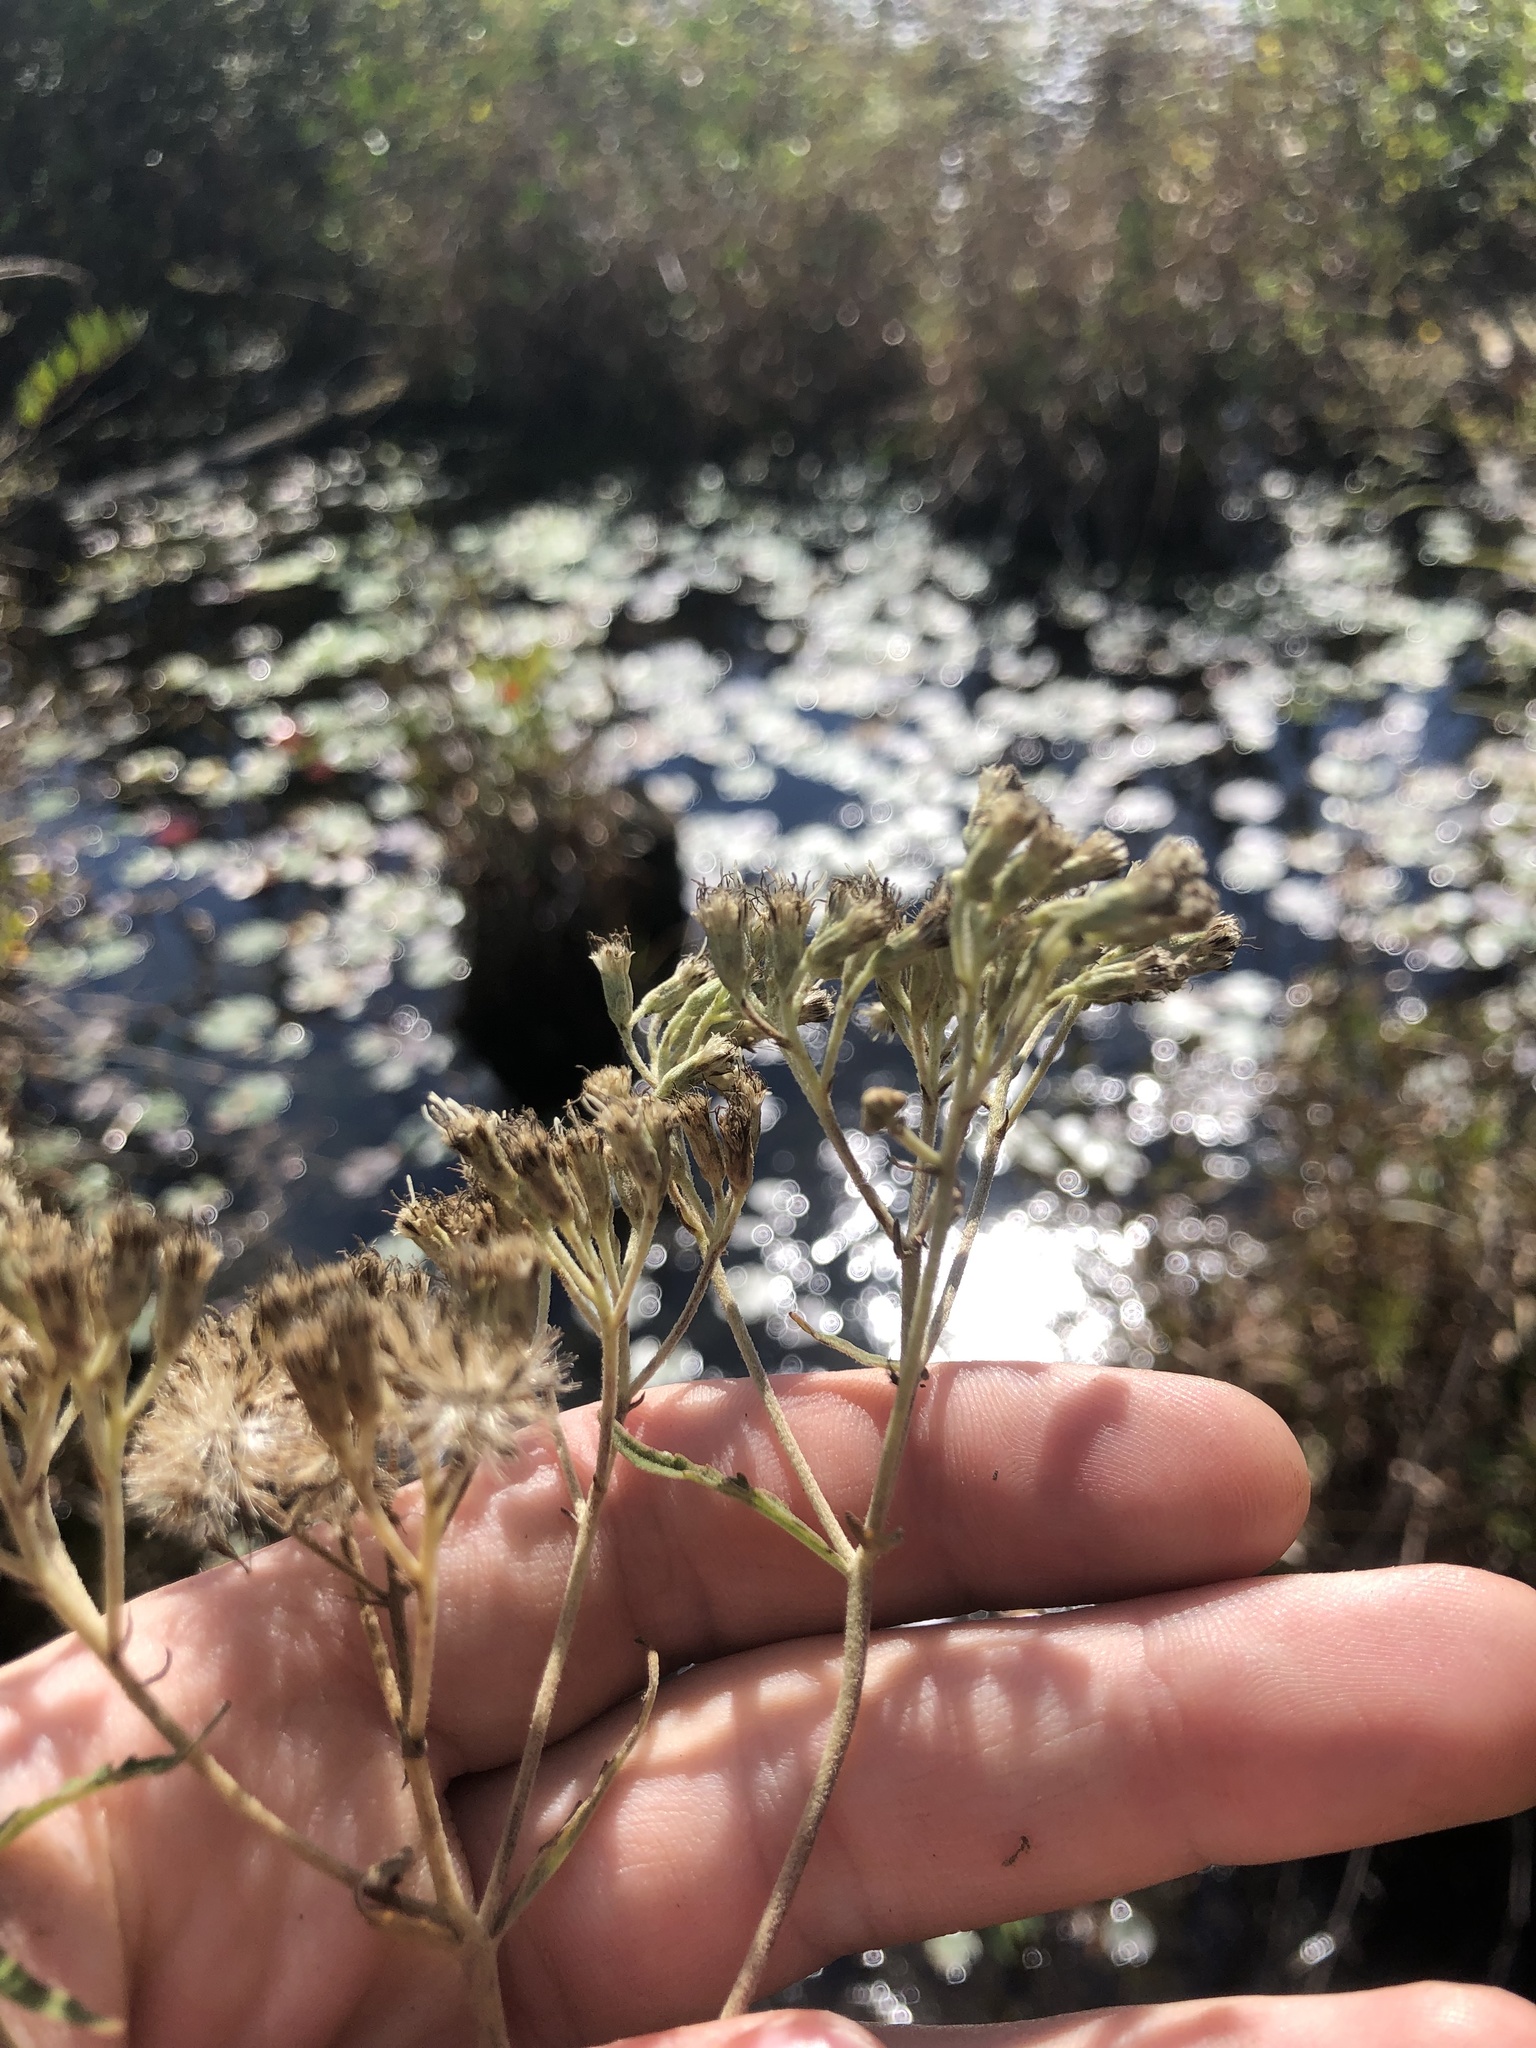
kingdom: Plantae
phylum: Tracheophyta
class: Magnoliopsida
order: Asterales
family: Asteraceae
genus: Eupatorium
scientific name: Eupatorium resinosum
